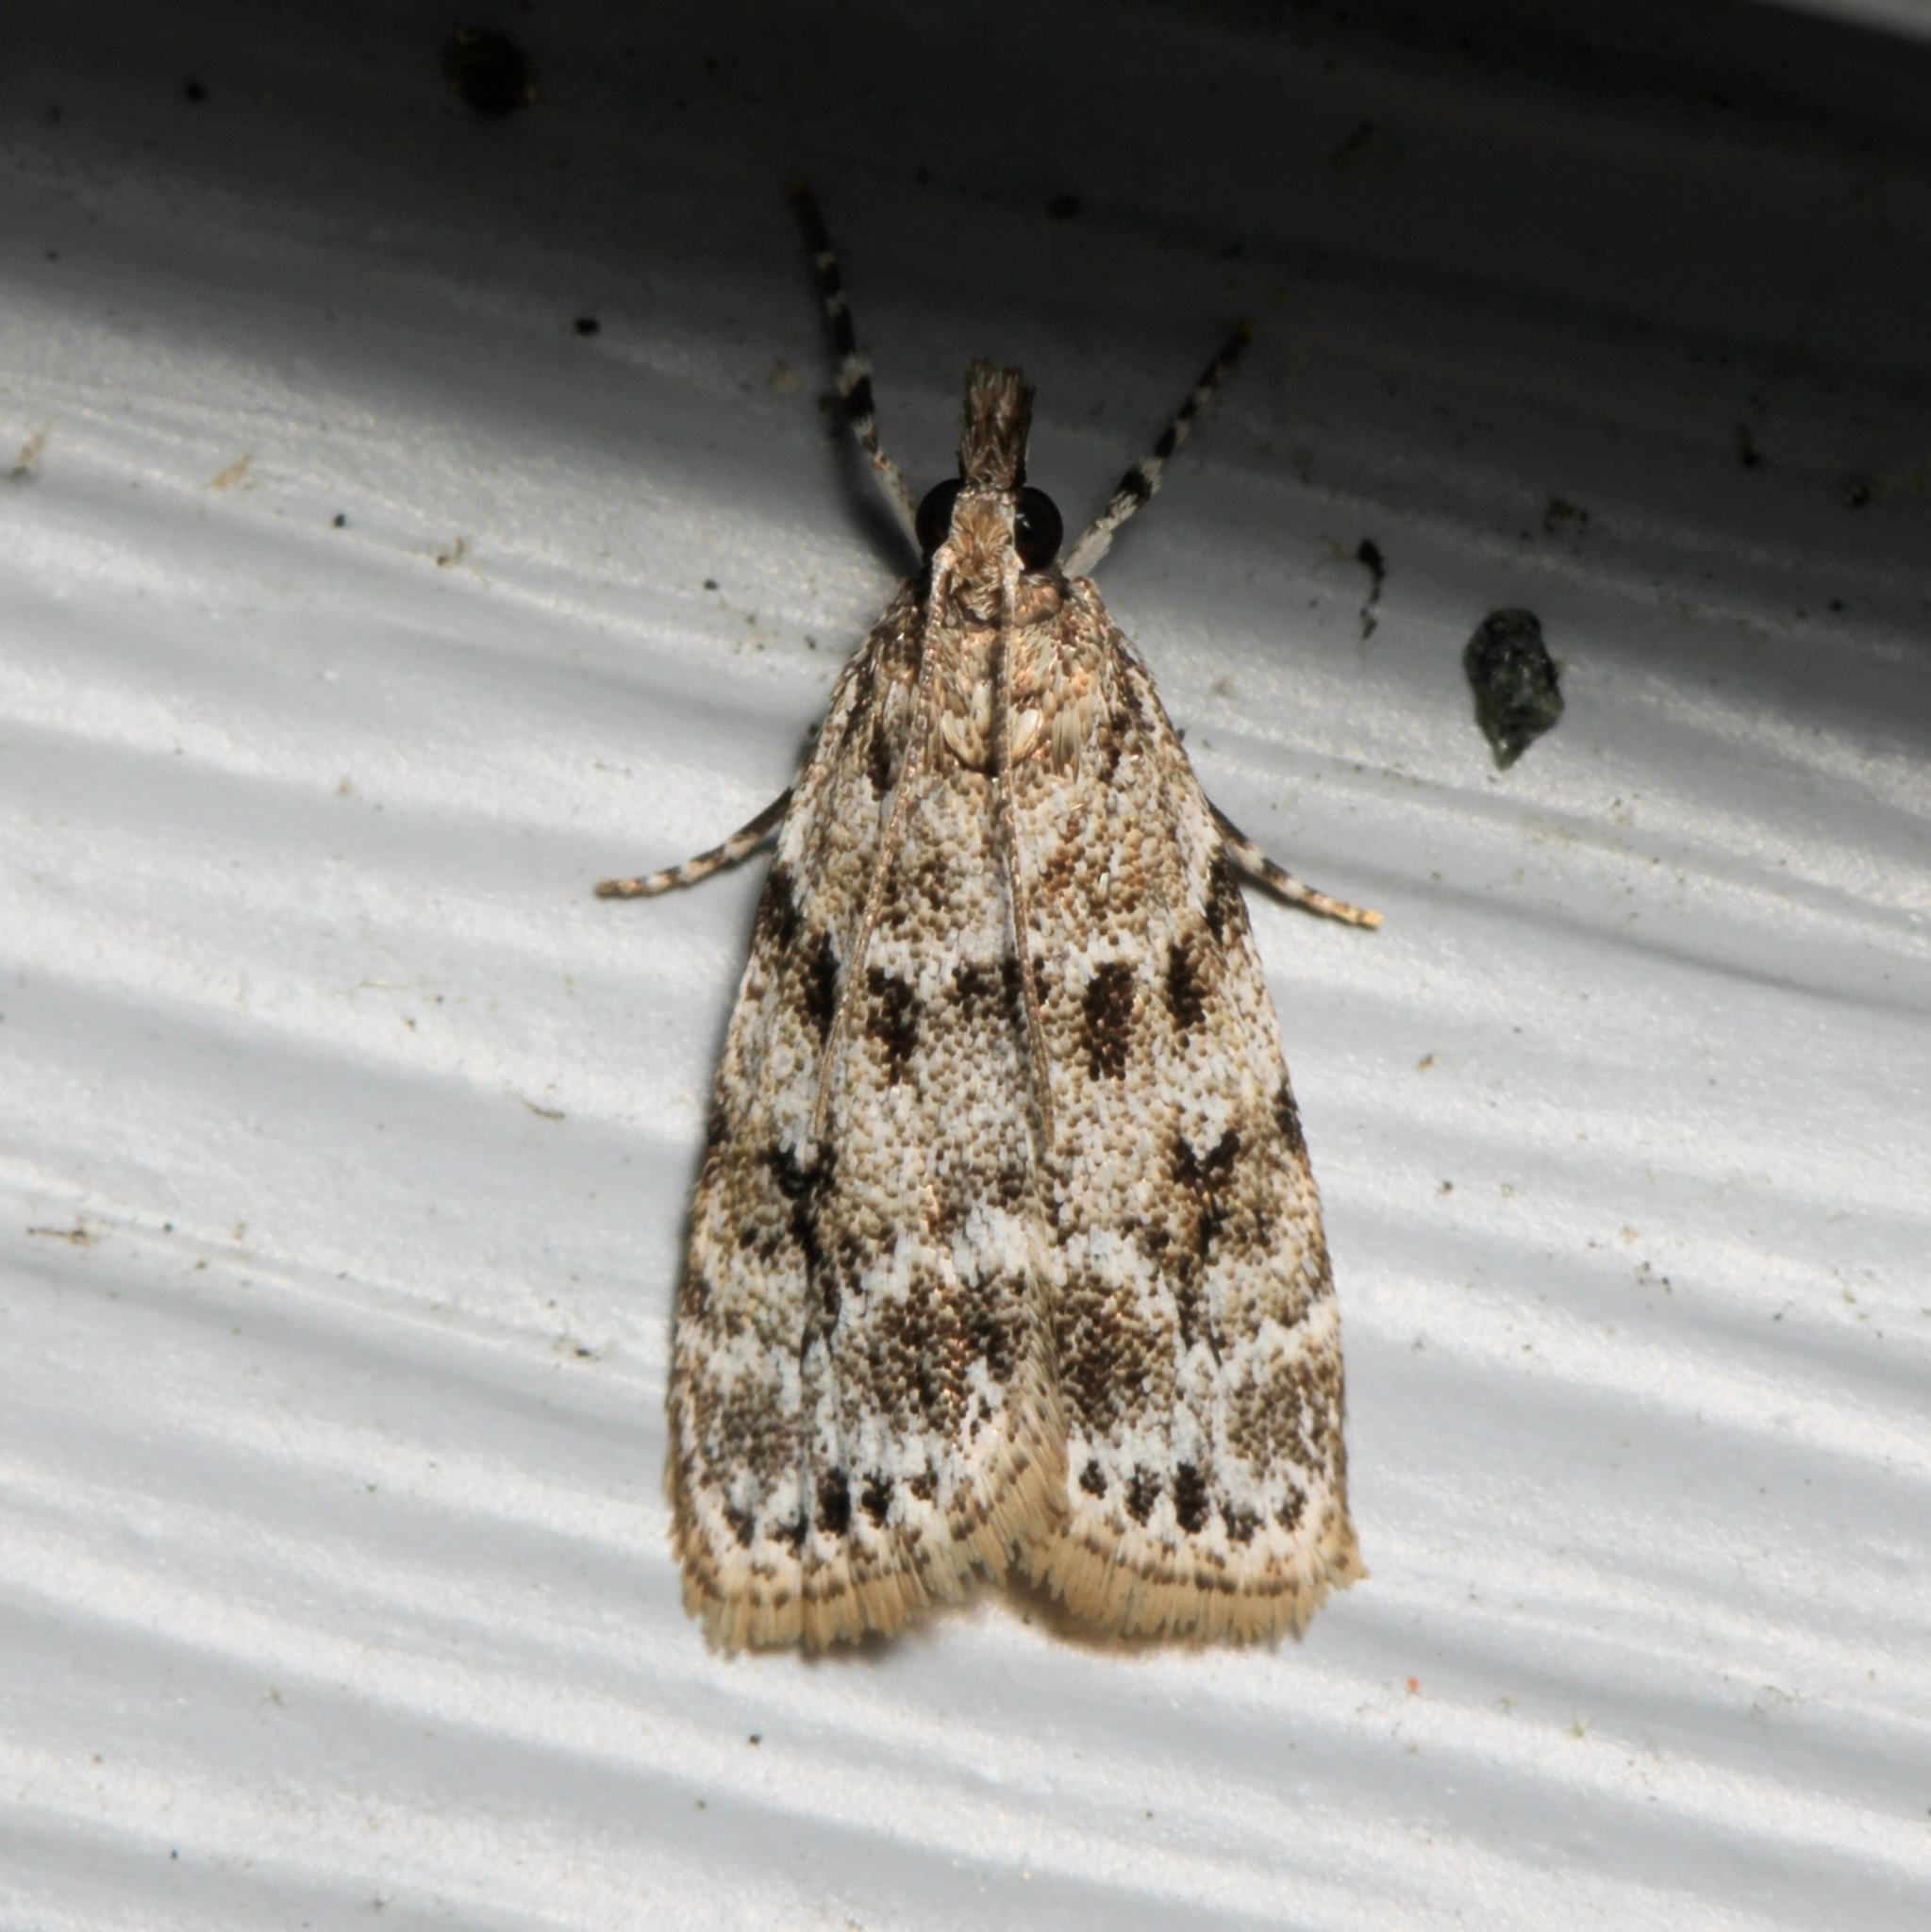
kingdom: Animalia
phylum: Arthropoda
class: Insecta
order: Lepidoptera
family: Crambidae
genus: Scoparia
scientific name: Scoparia basalis
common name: Many-spotted scoparia moth
